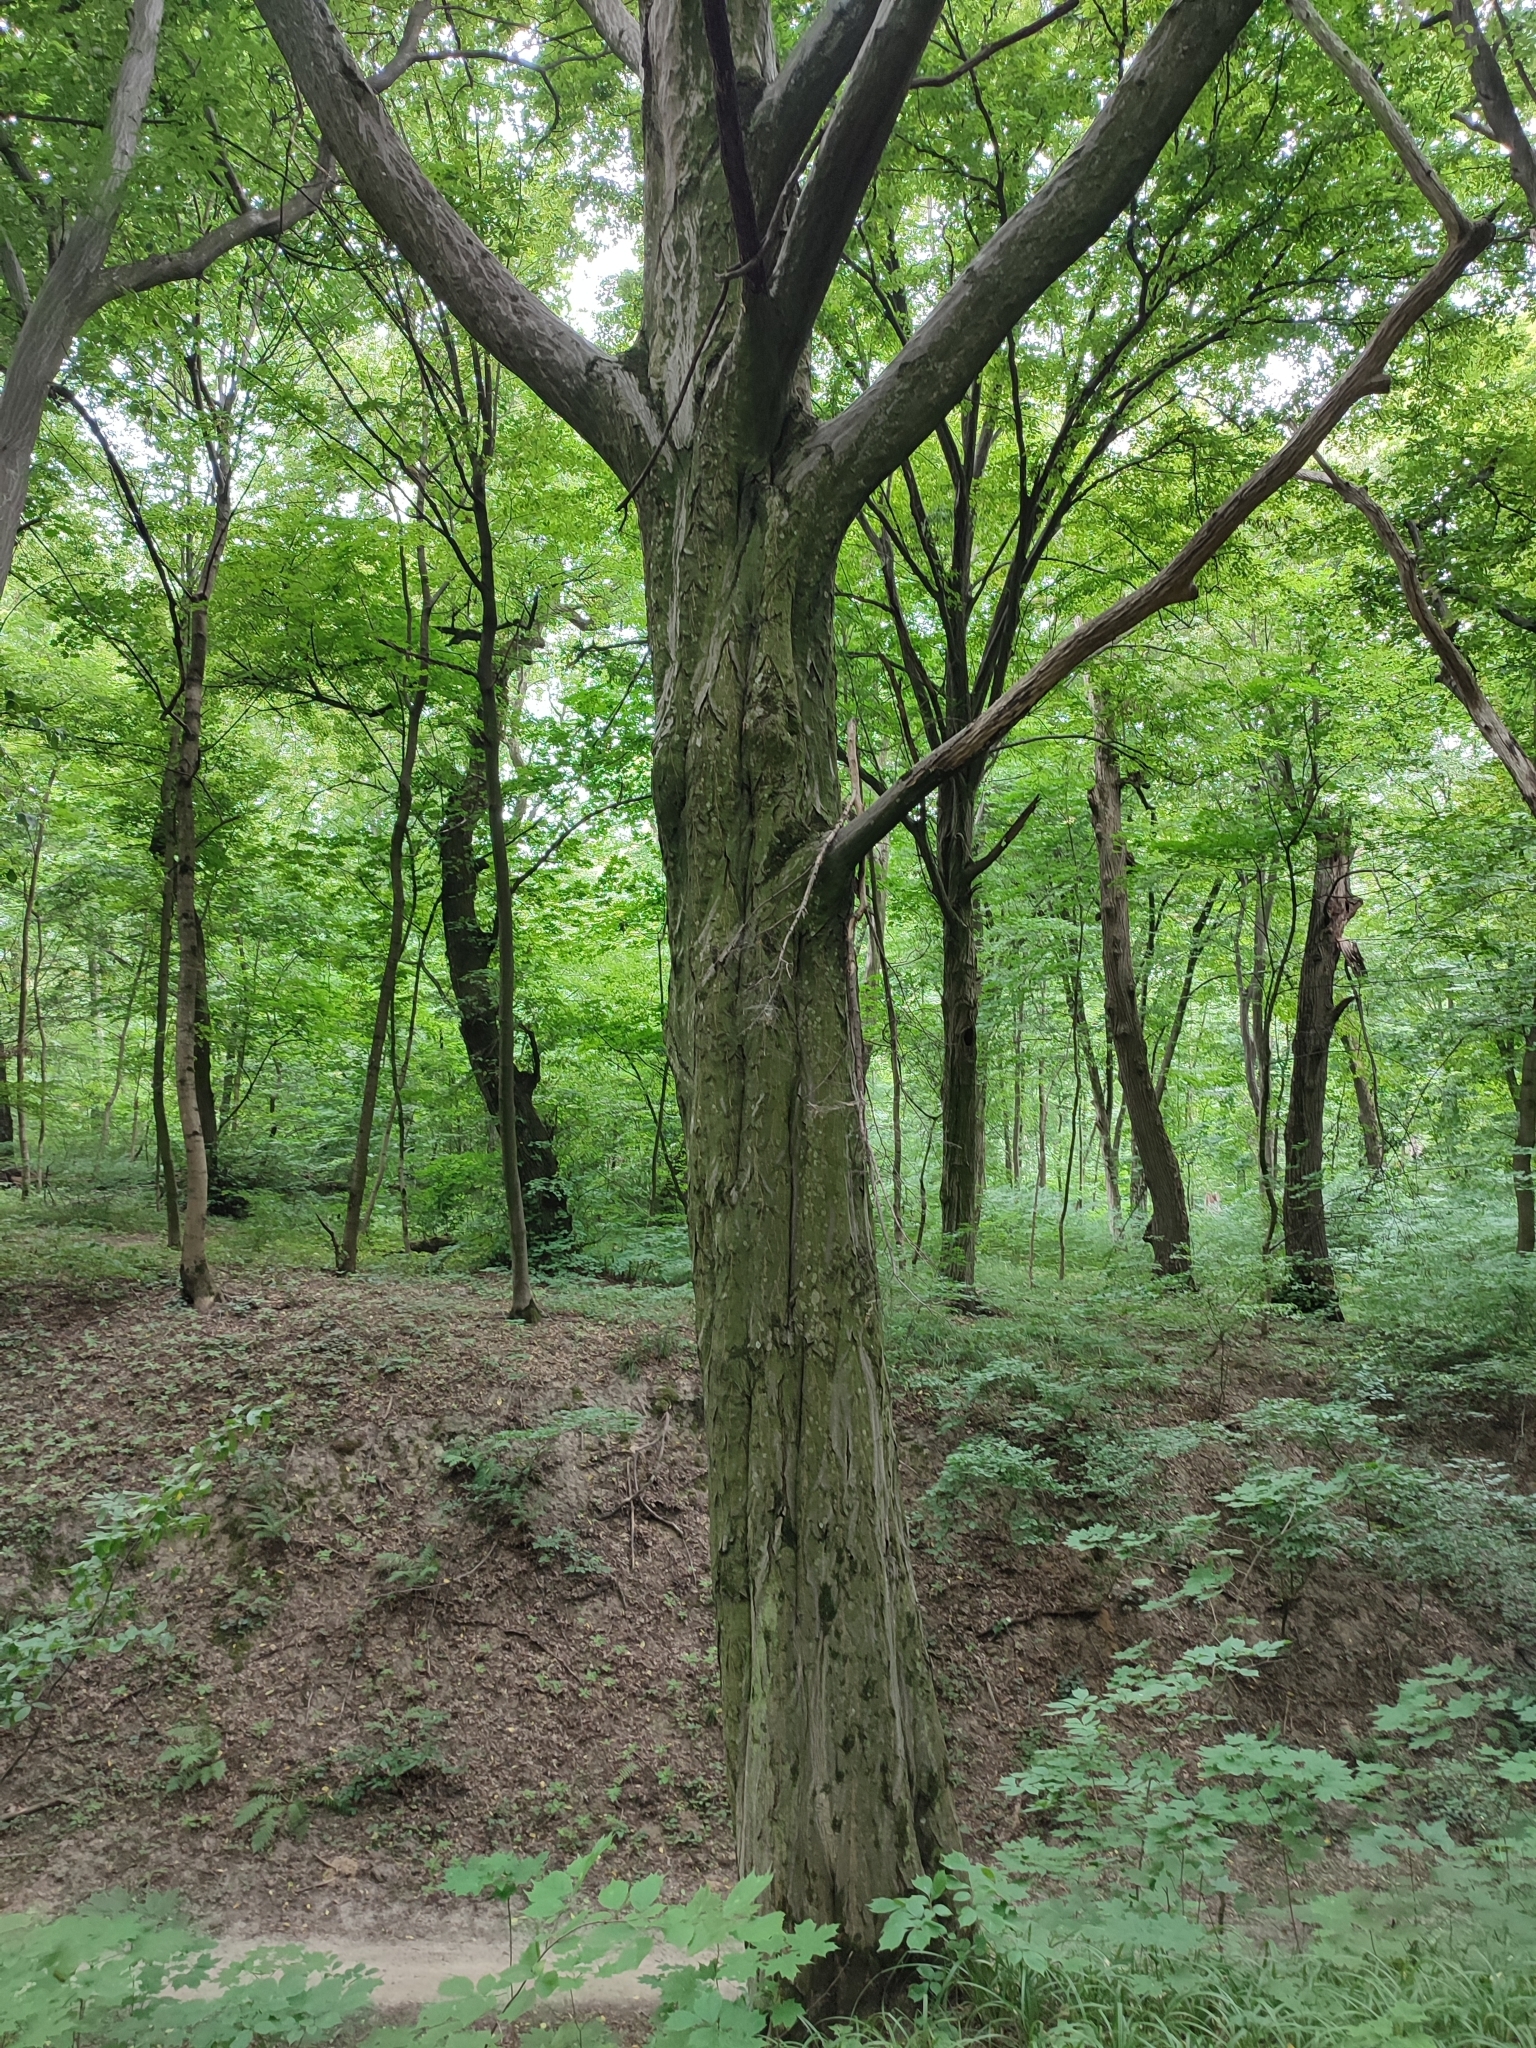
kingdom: Plantae
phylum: Tracheophyta
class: Magnoliopsida
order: Fagales
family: Betulaceae
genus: Carpinus
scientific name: Carpinus betulus
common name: Hornbeam
